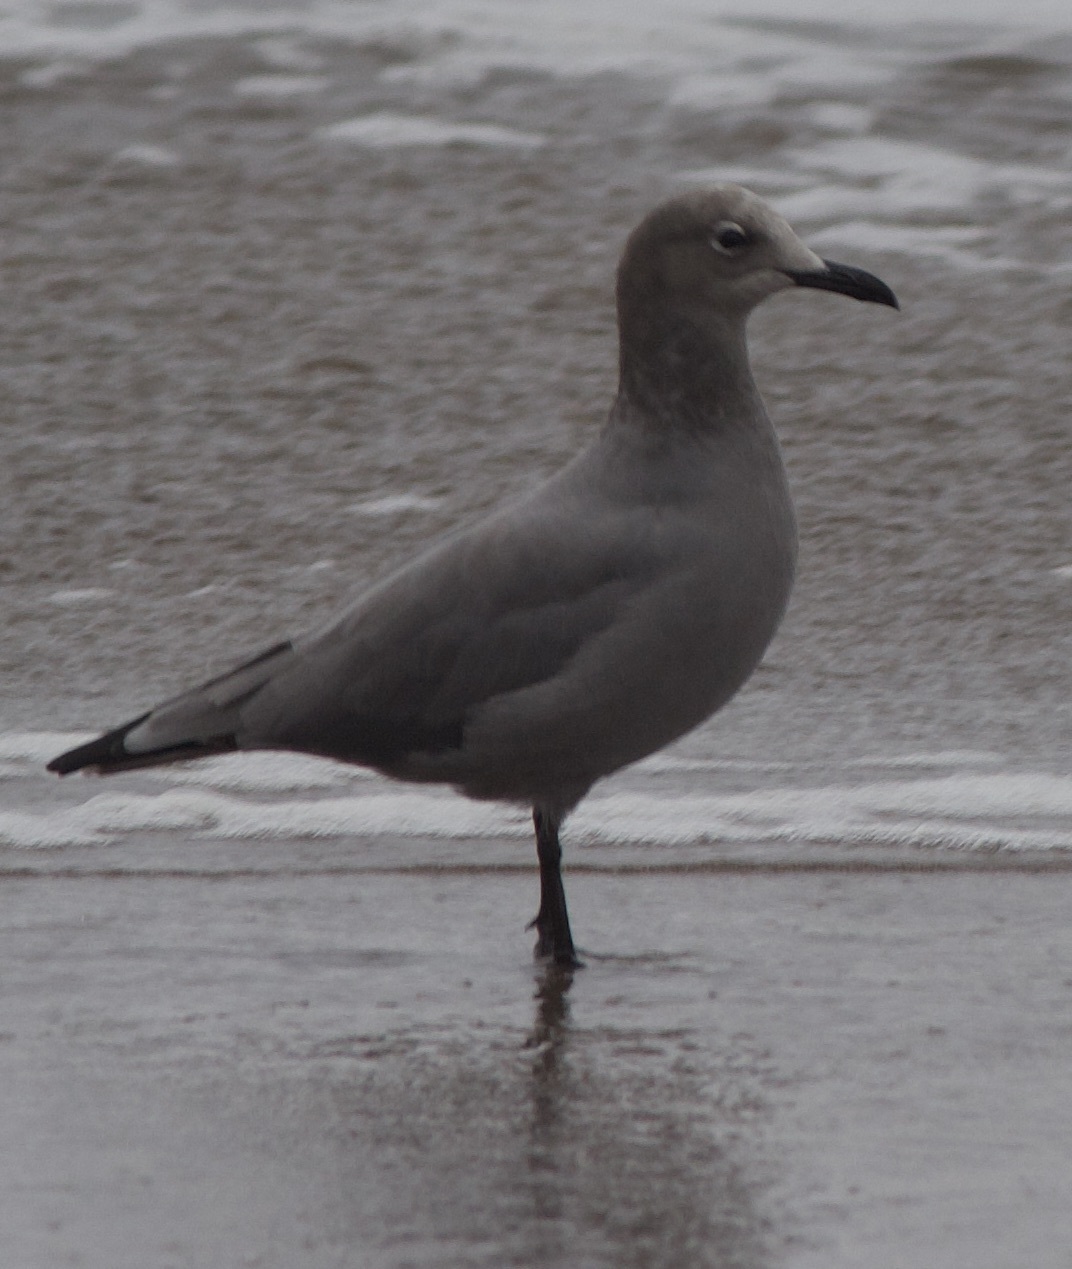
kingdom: Animalia
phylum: Chordata
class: Aves
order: Charadriiformes
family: Laridae
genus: Leucophaeus
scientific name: Leucophaeus modestus
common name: Gray gull
